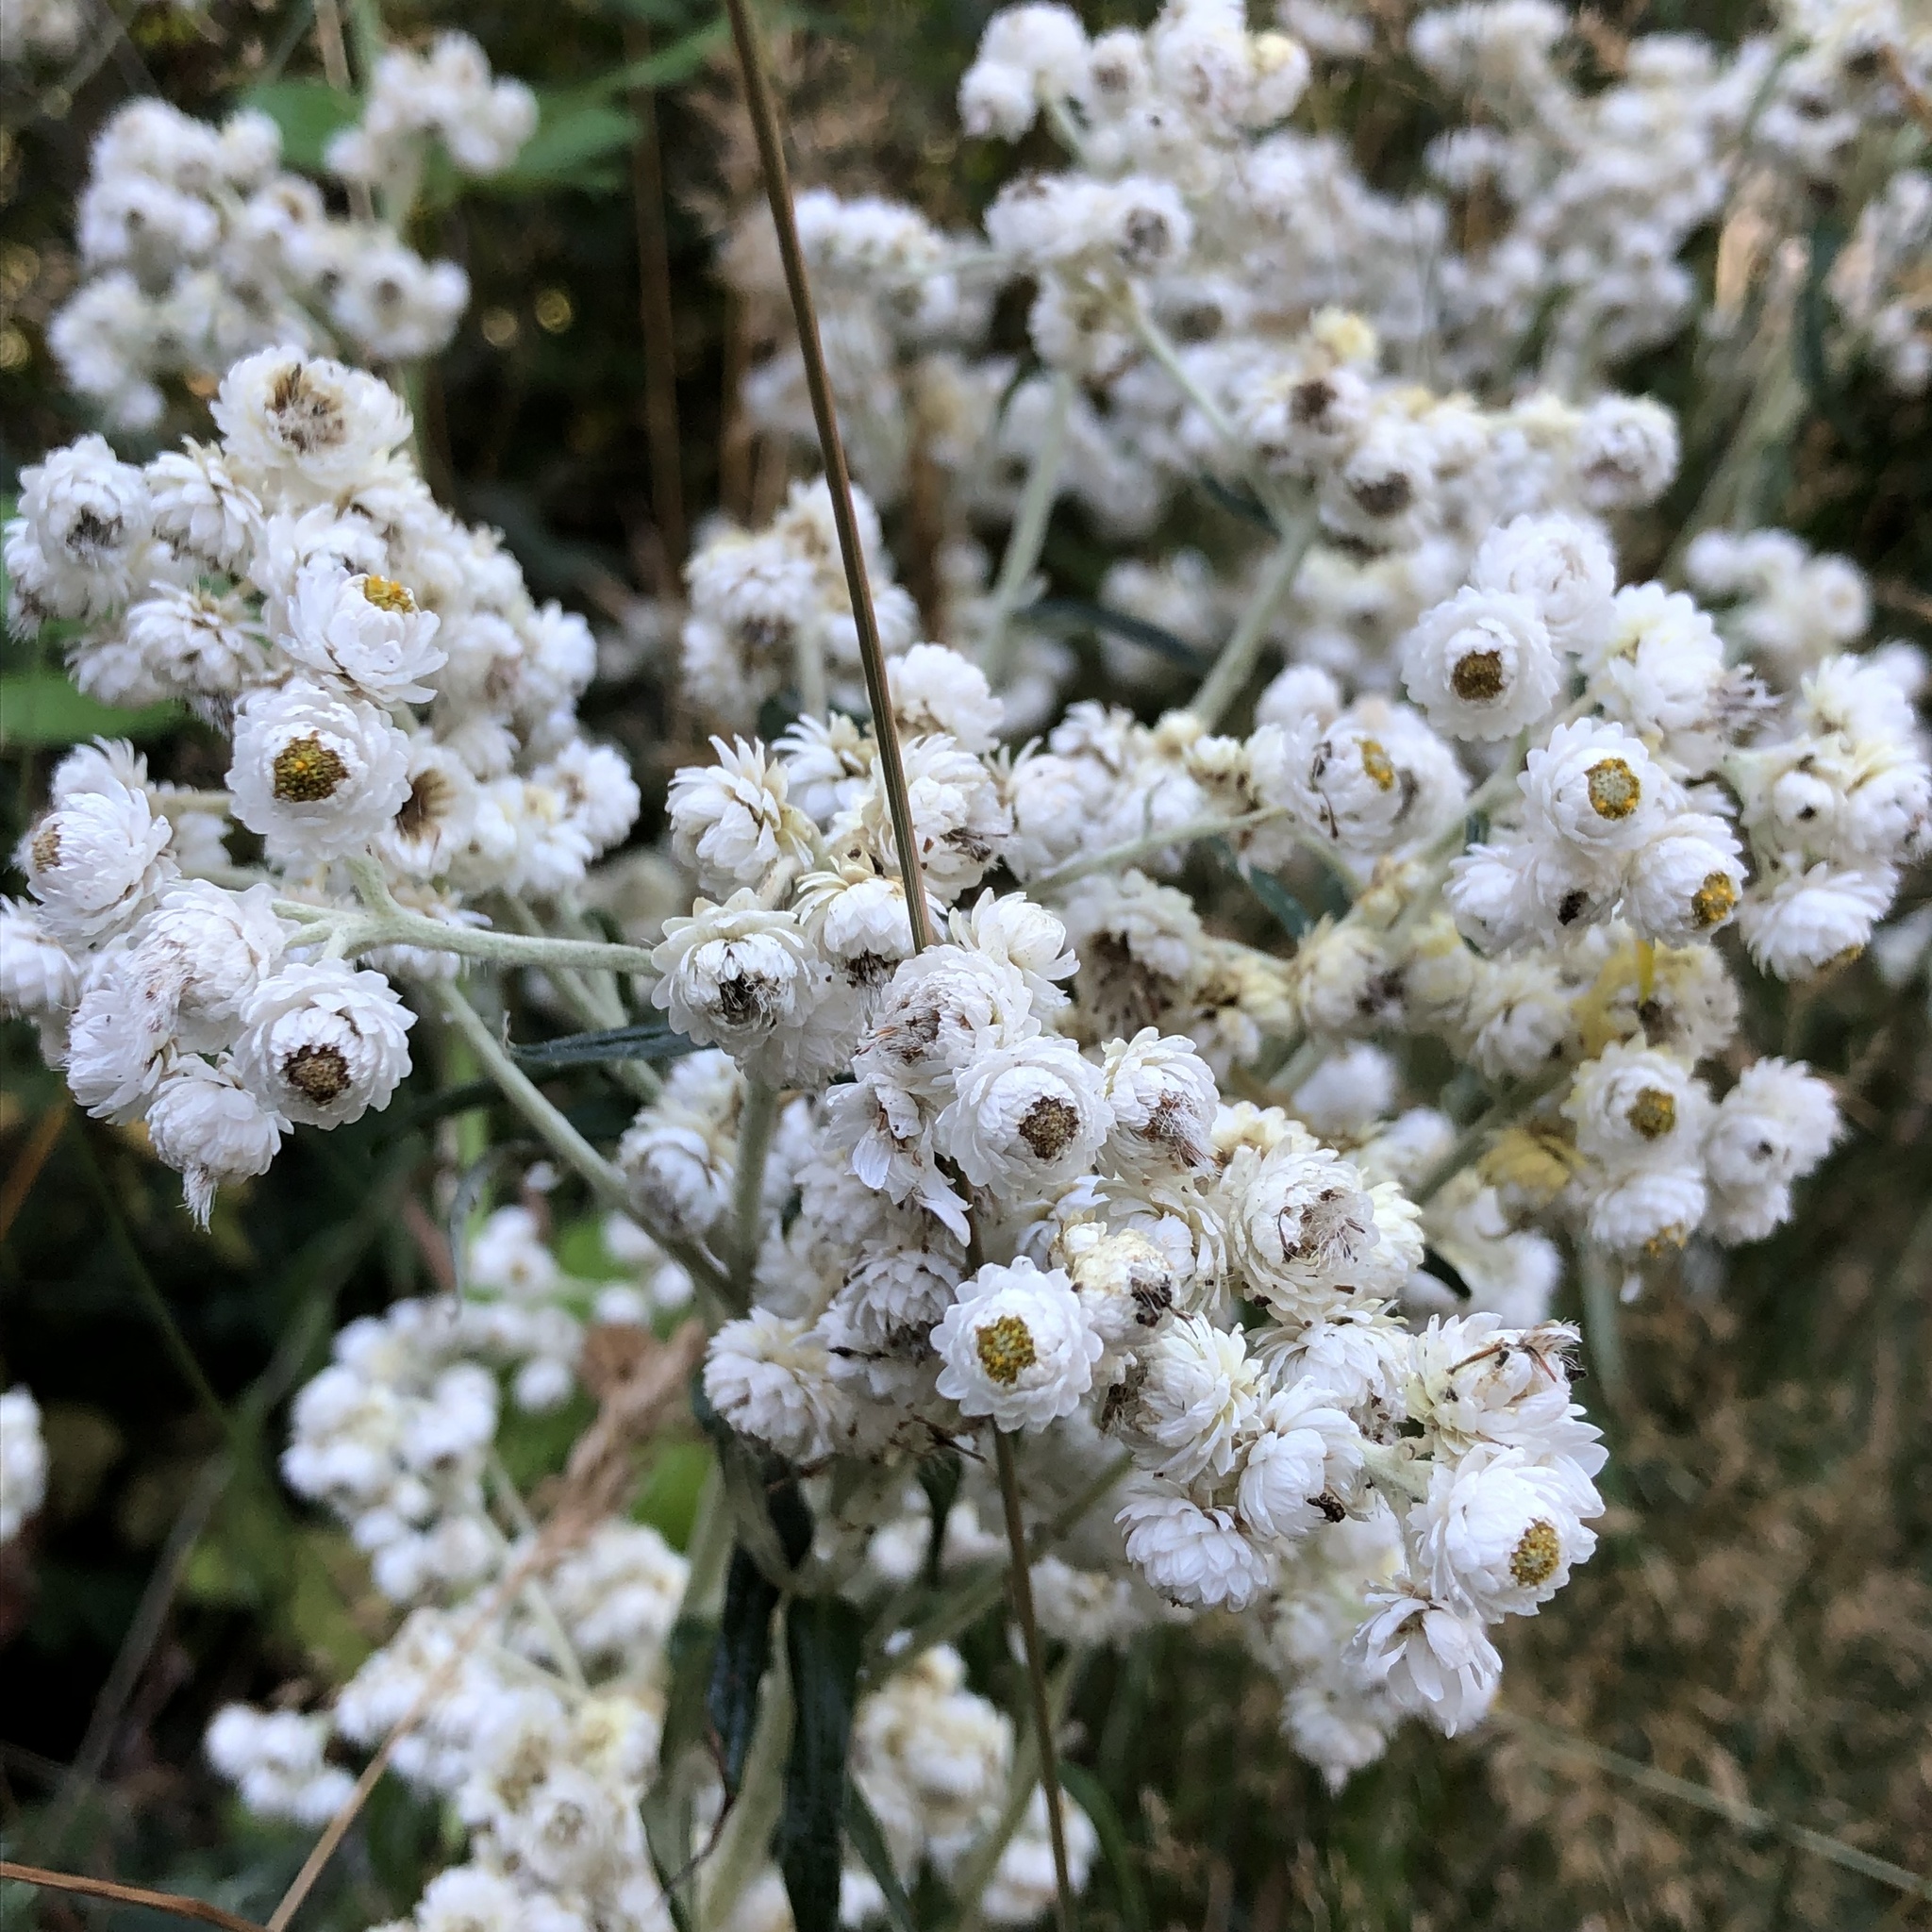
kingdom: Plantae
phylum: Tracheophyta
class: Magnoliopsida
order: Asterales
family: Asteraceae
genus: Anaphalis
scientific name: Anaphalis margaritacea
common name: Pearly everlasting
